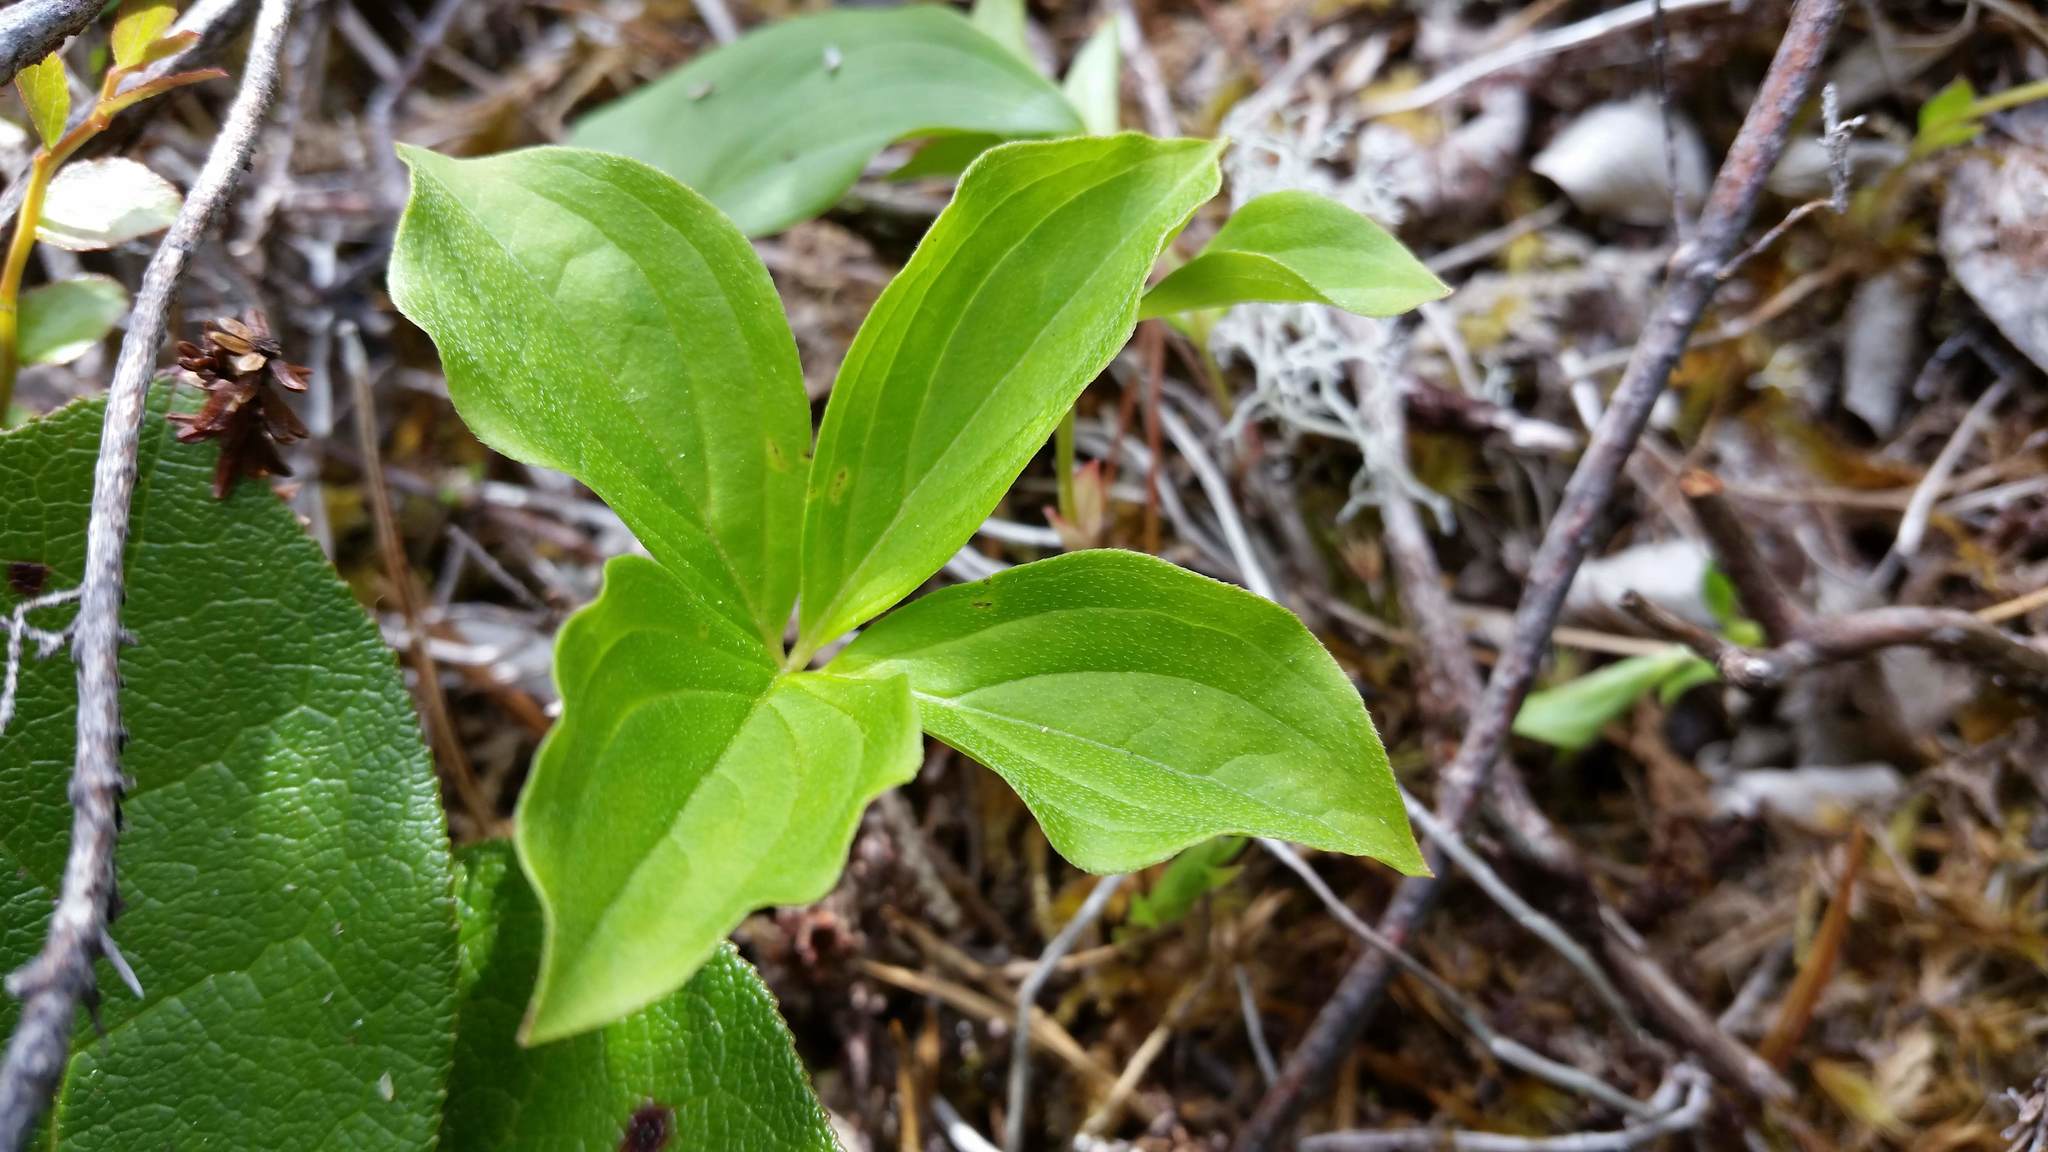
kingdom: Plantae
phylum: Tracheophyta
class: Magnoliopsida
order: Cornales
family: Cornaceae
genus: Cornus
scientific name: Cornus unalaschkensis
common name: Alaska bunchberry
